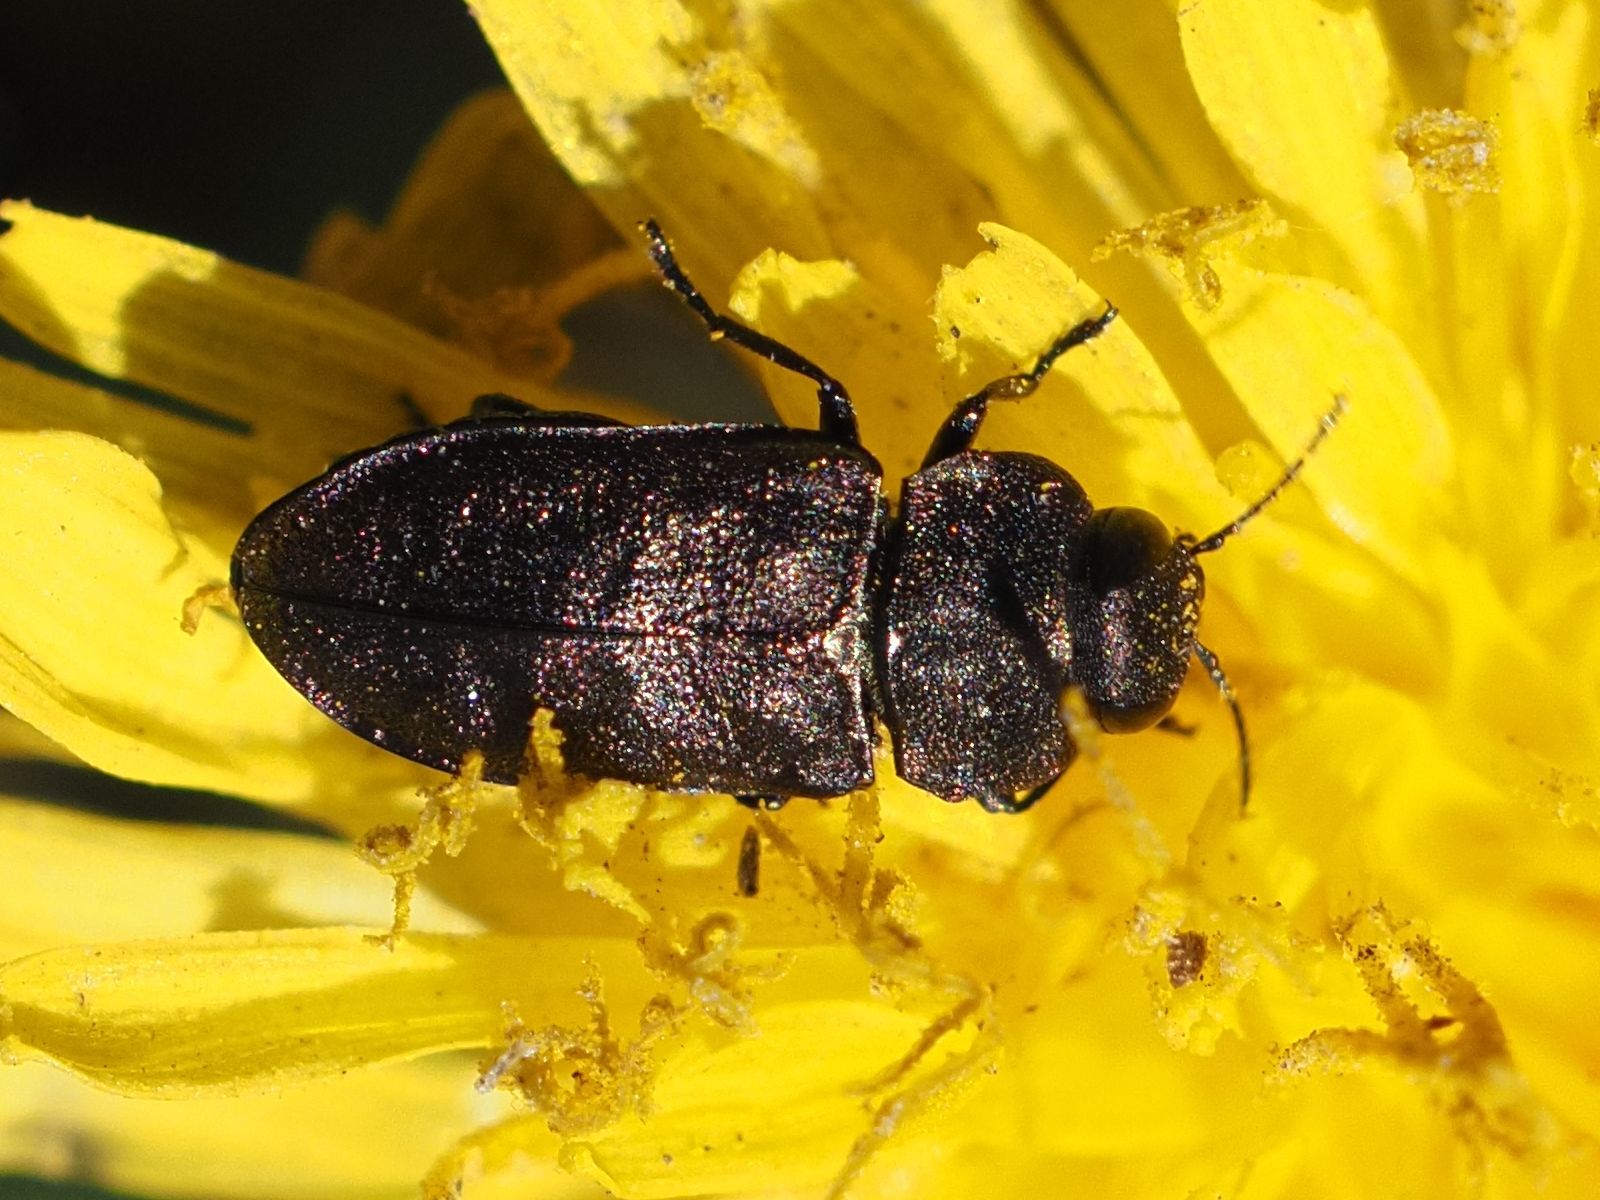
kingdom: Animalia
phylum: Arthropoda
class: Insecta
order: Coleoptera
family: Buprestidae
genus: Anthaxia
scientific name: Anthaxia helvetica
